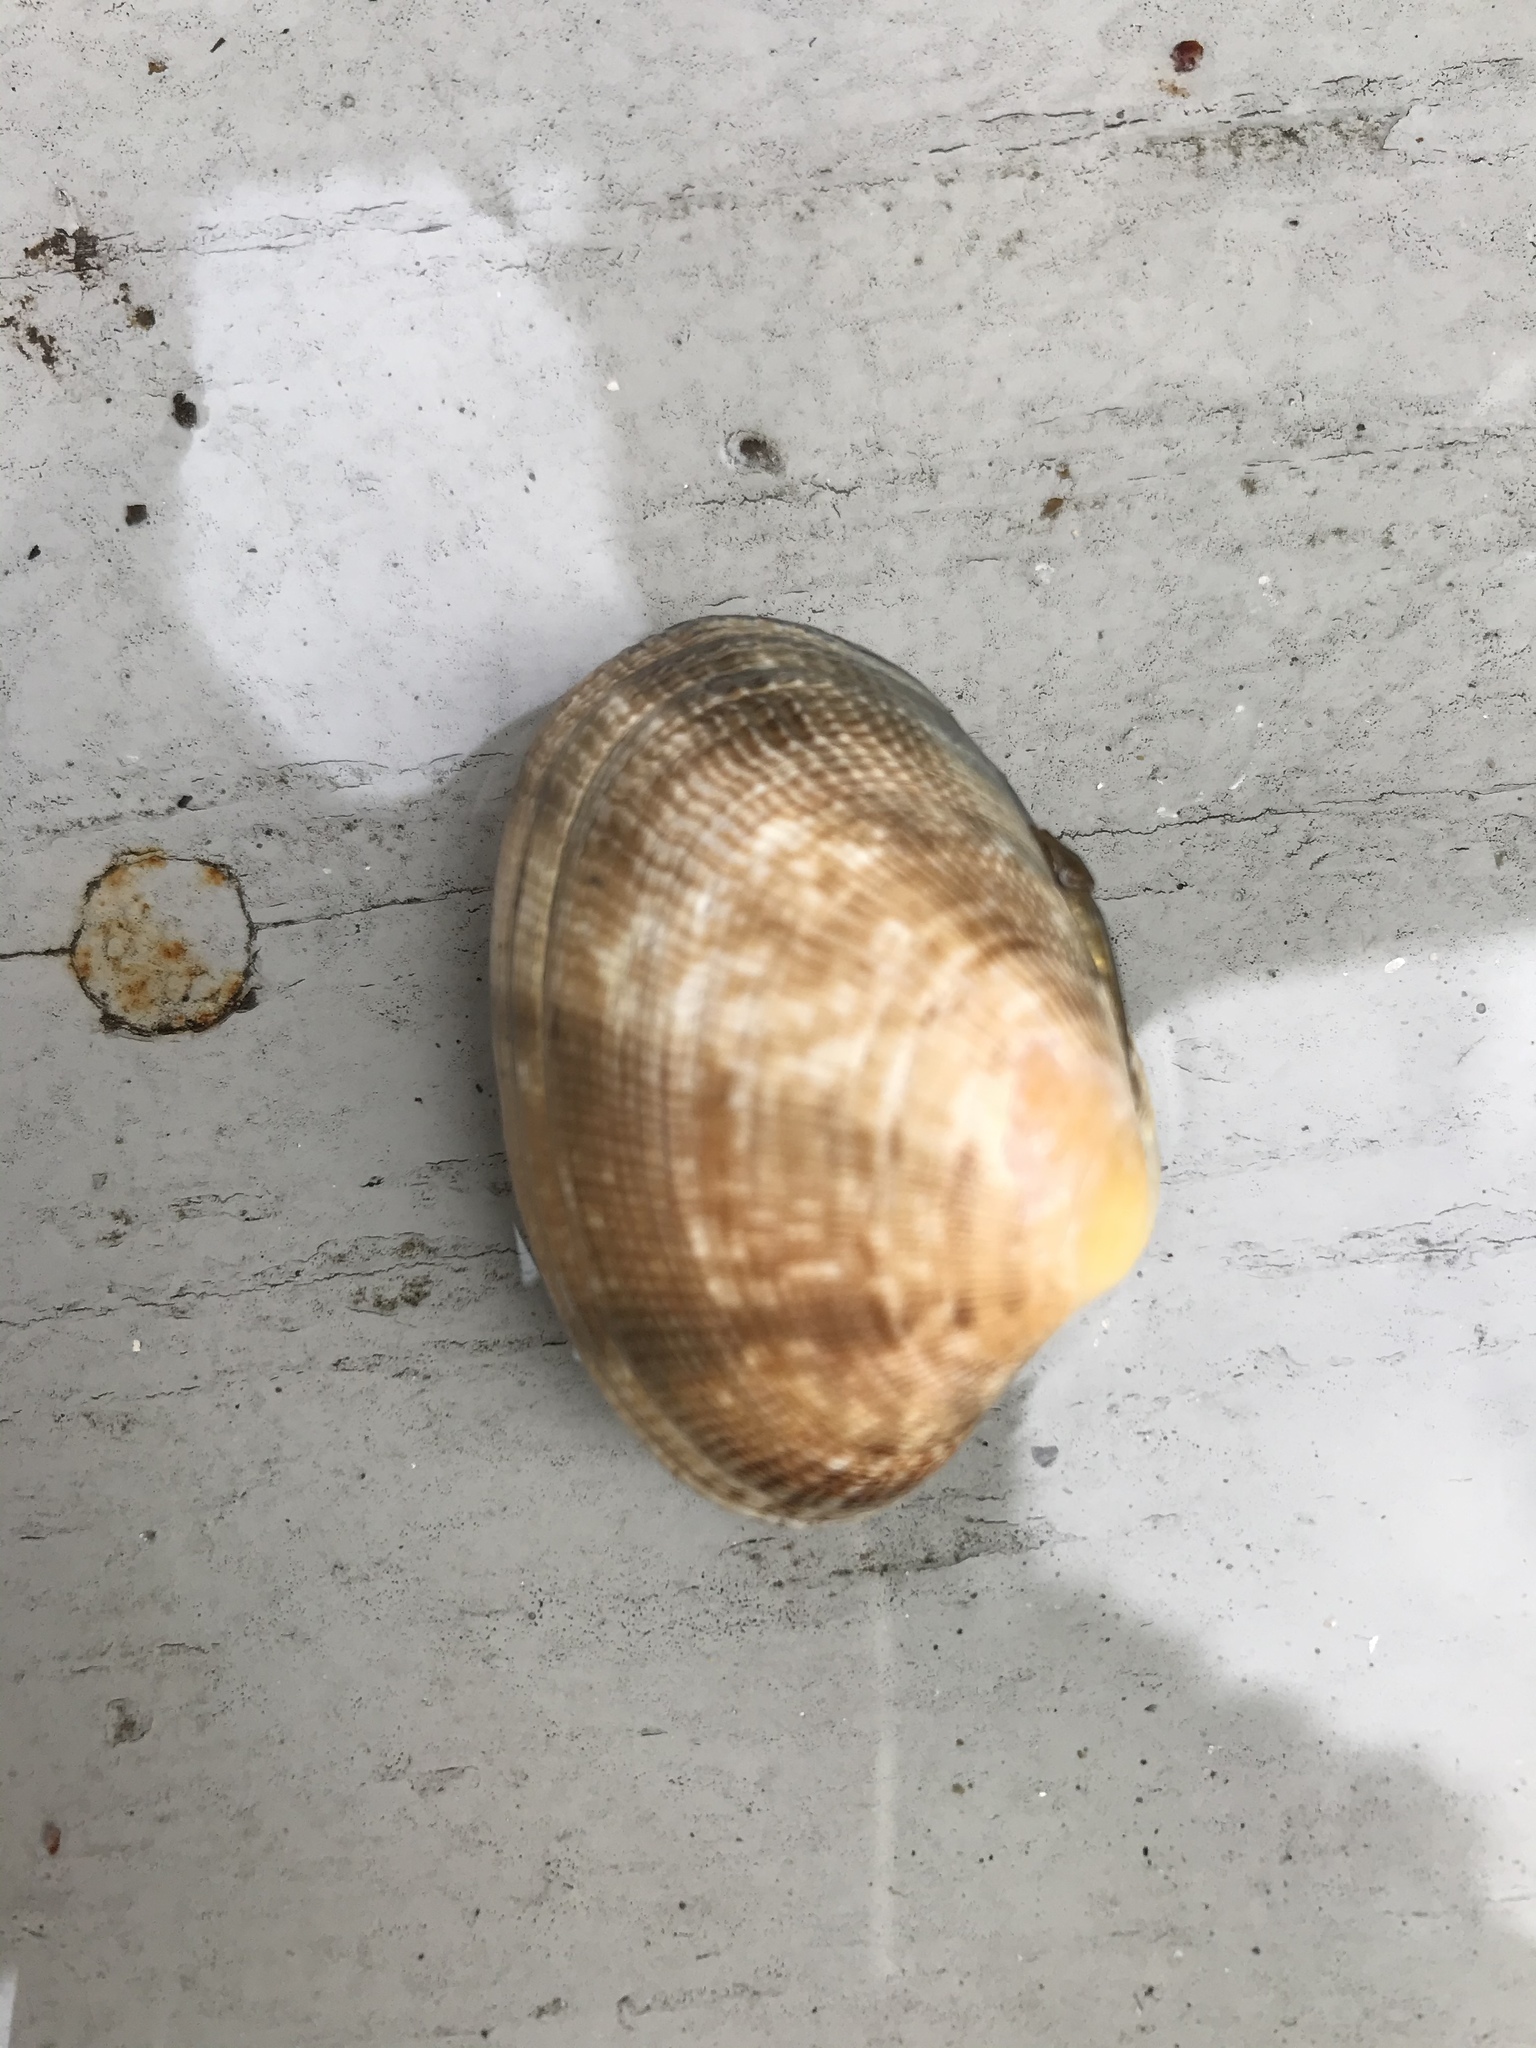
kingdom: Animalia
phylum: Mollusca
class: Bivalvia
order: Venerida
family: Veneridae
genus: Ruditapes
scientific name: Ruditapes philippinarum
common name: Manila clam
